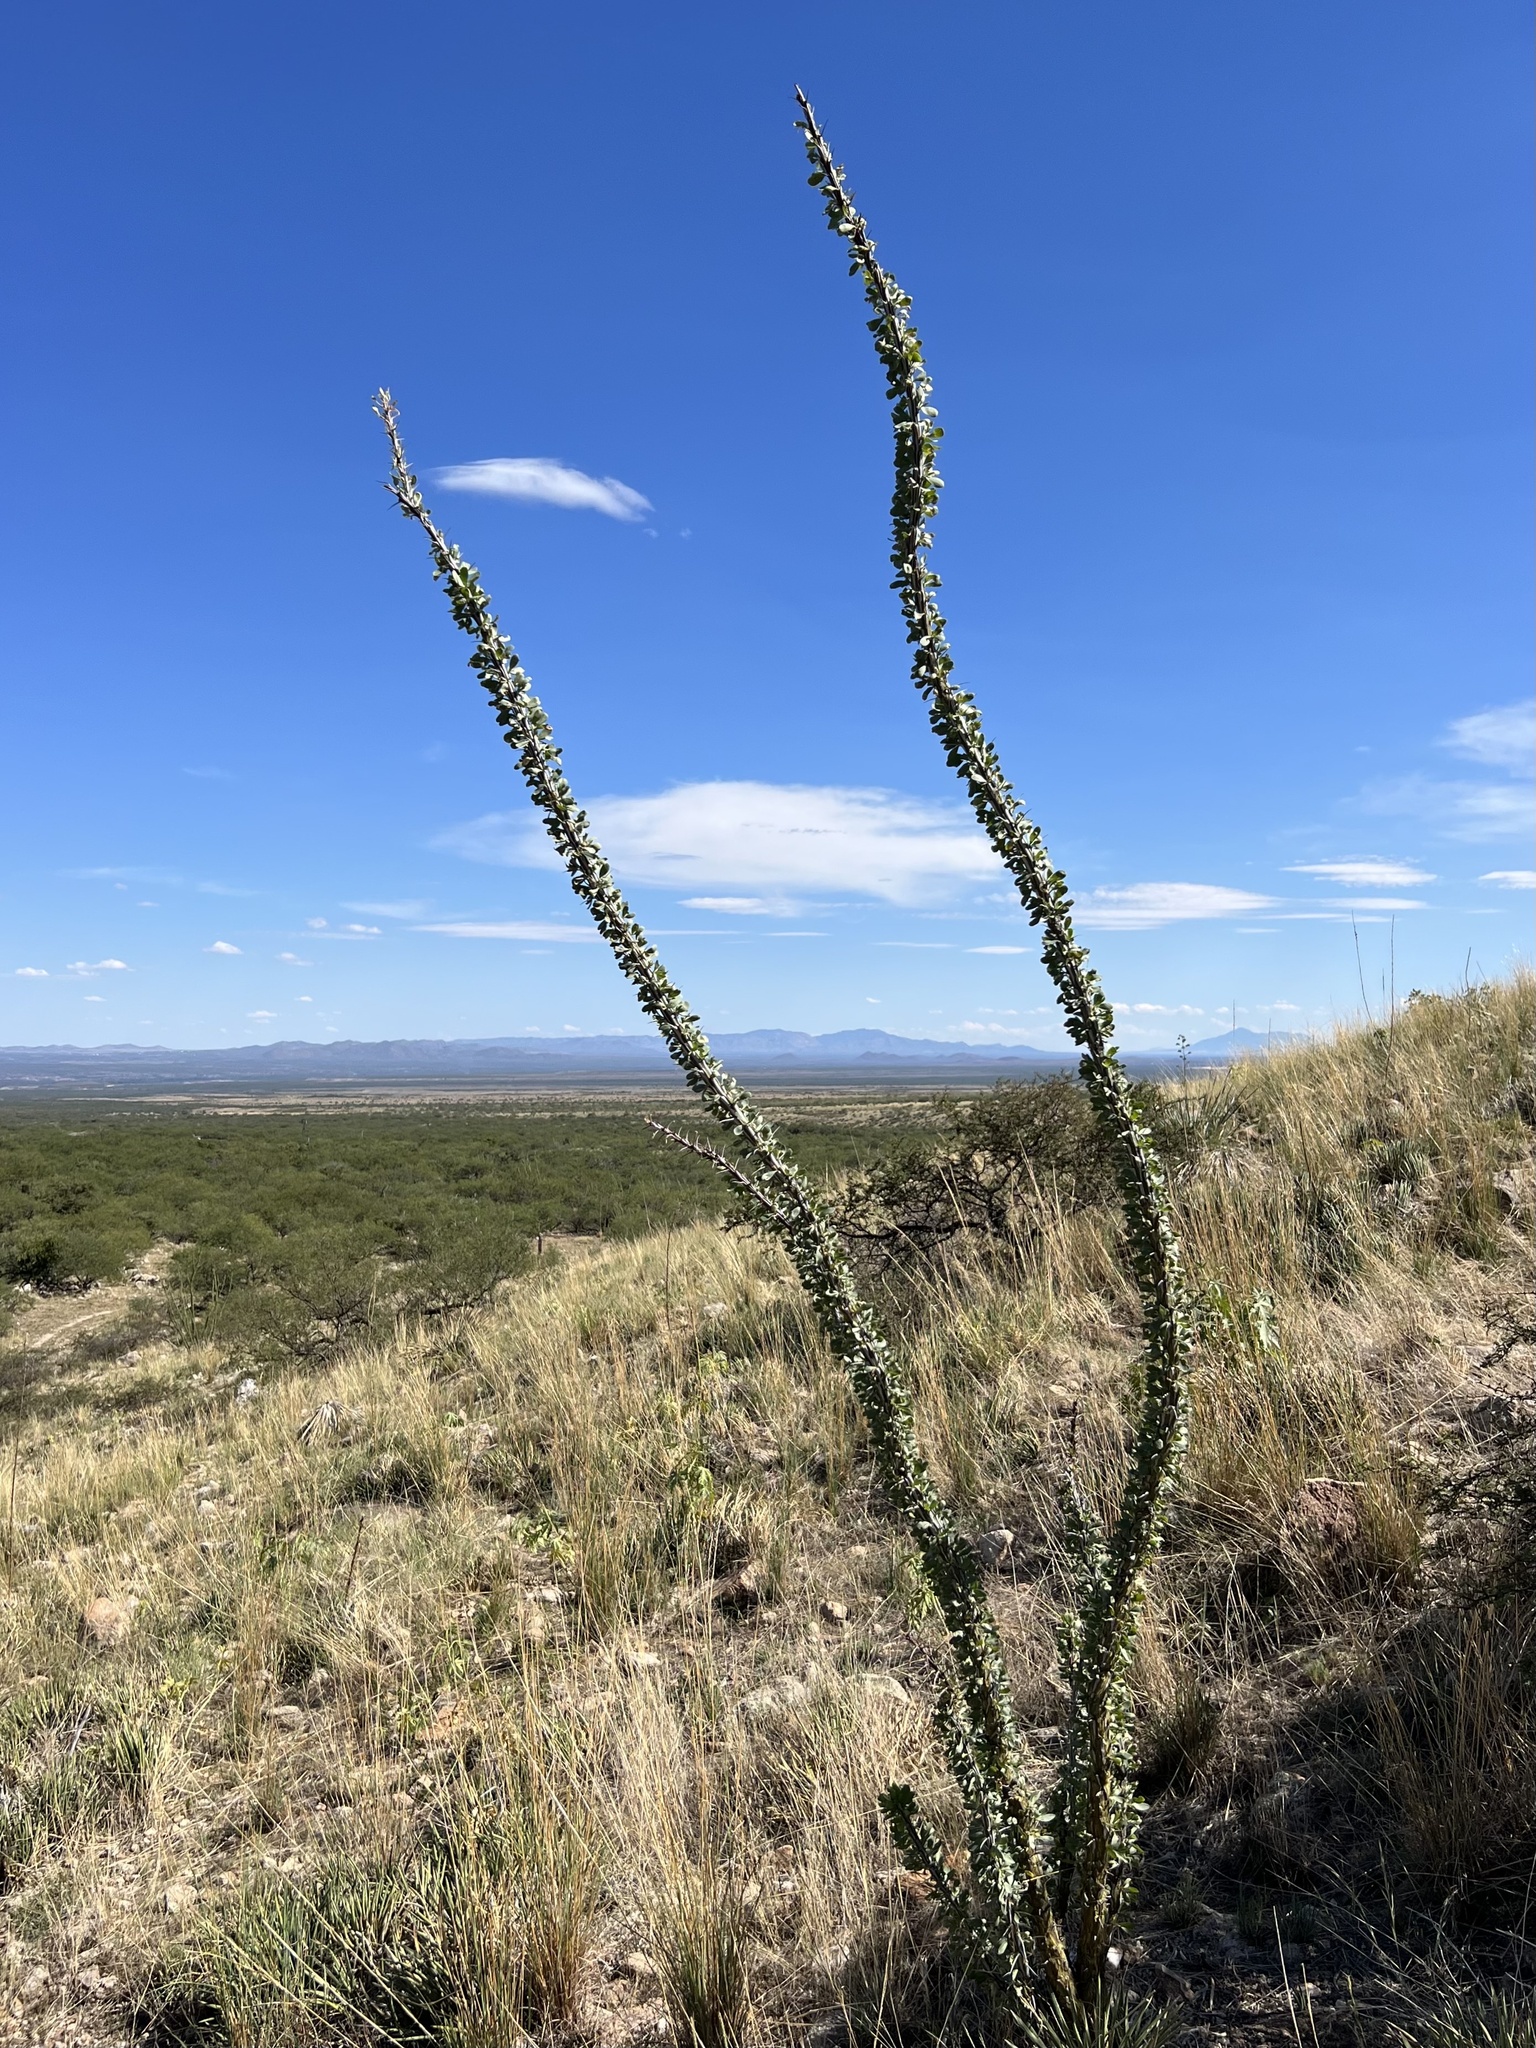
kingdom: Plantae
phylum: Tracheophyta
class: Magnoliopsida
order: Ericales
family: Fouquieriaceae
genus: Fouquieria
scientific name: Fouquieria splendens
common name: Vine-cactus
